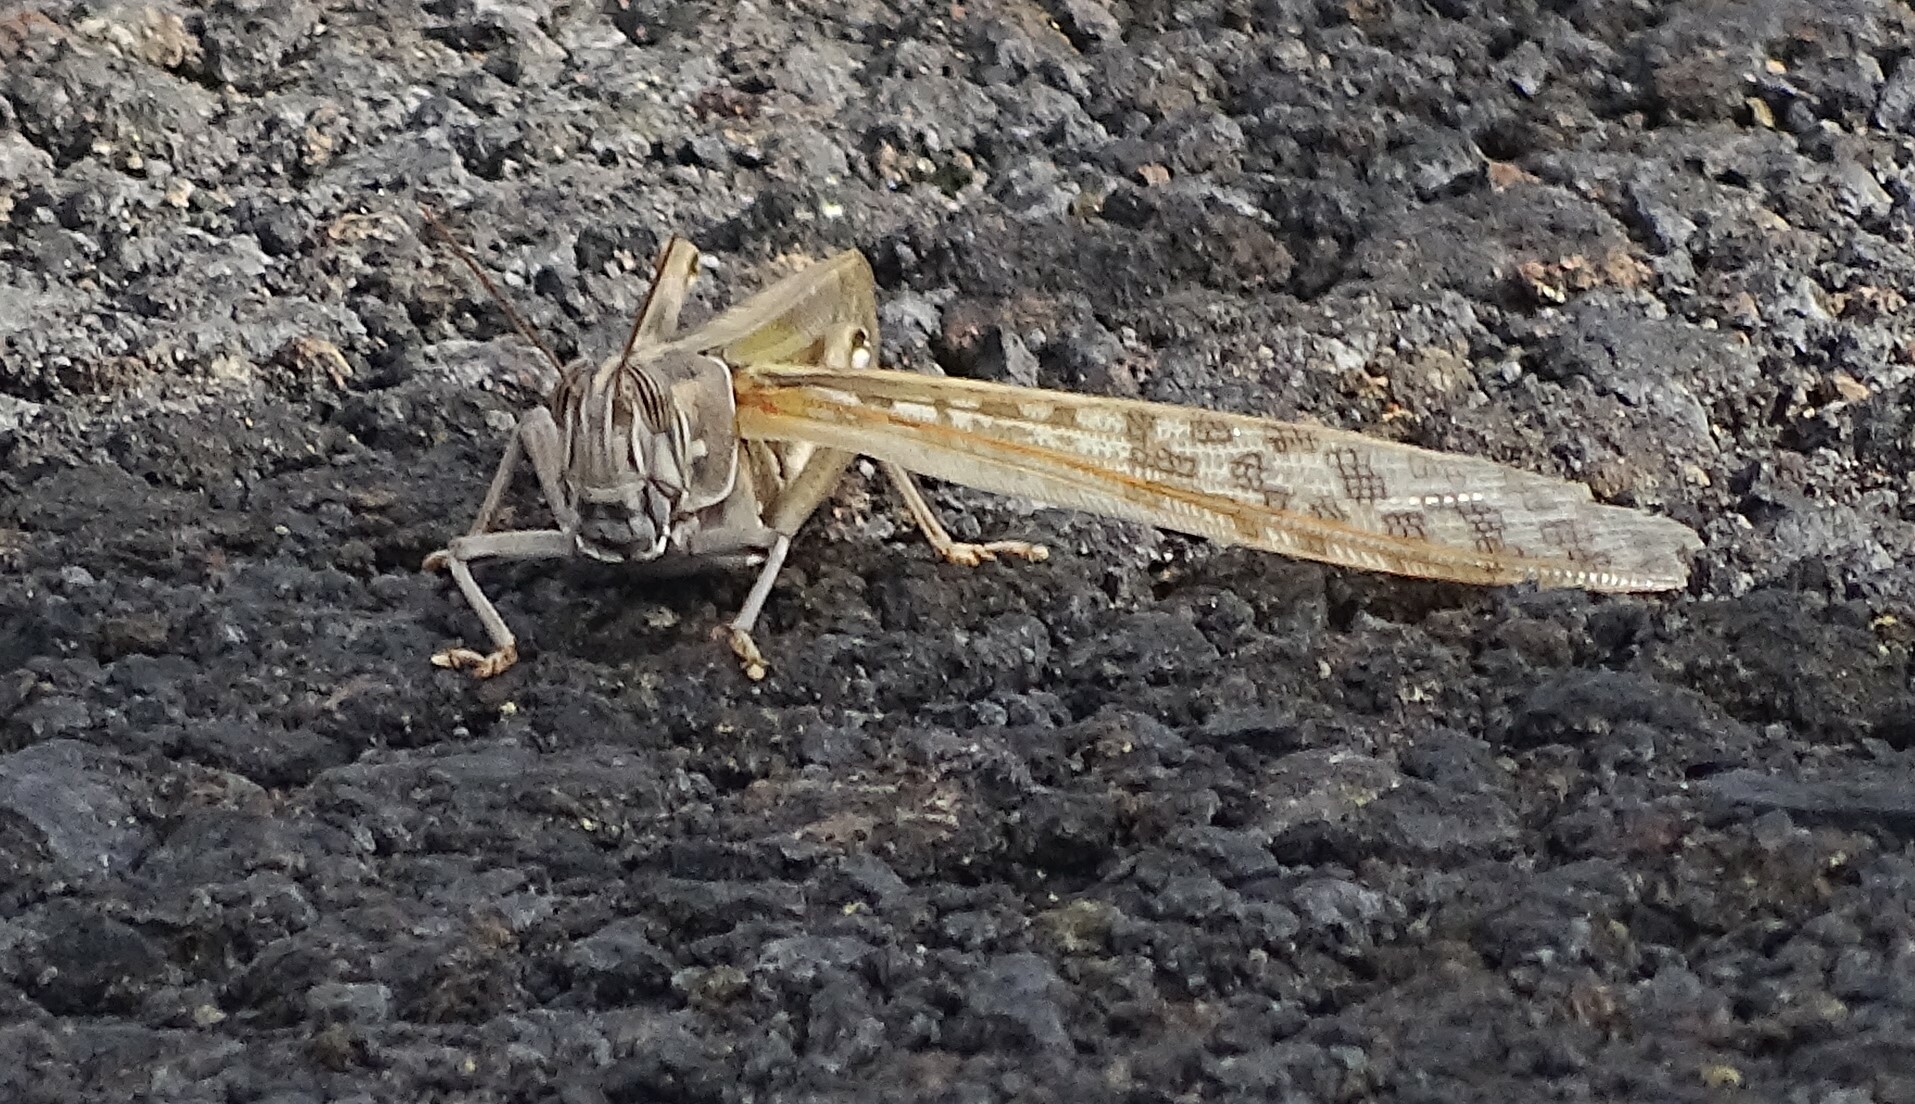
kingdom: Animalia
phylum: Arthropoda
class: Insecta
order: Orthoptera
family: Acrididae
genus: Schistocerca
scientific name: Schistocerca gregaria
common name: Desert locust
